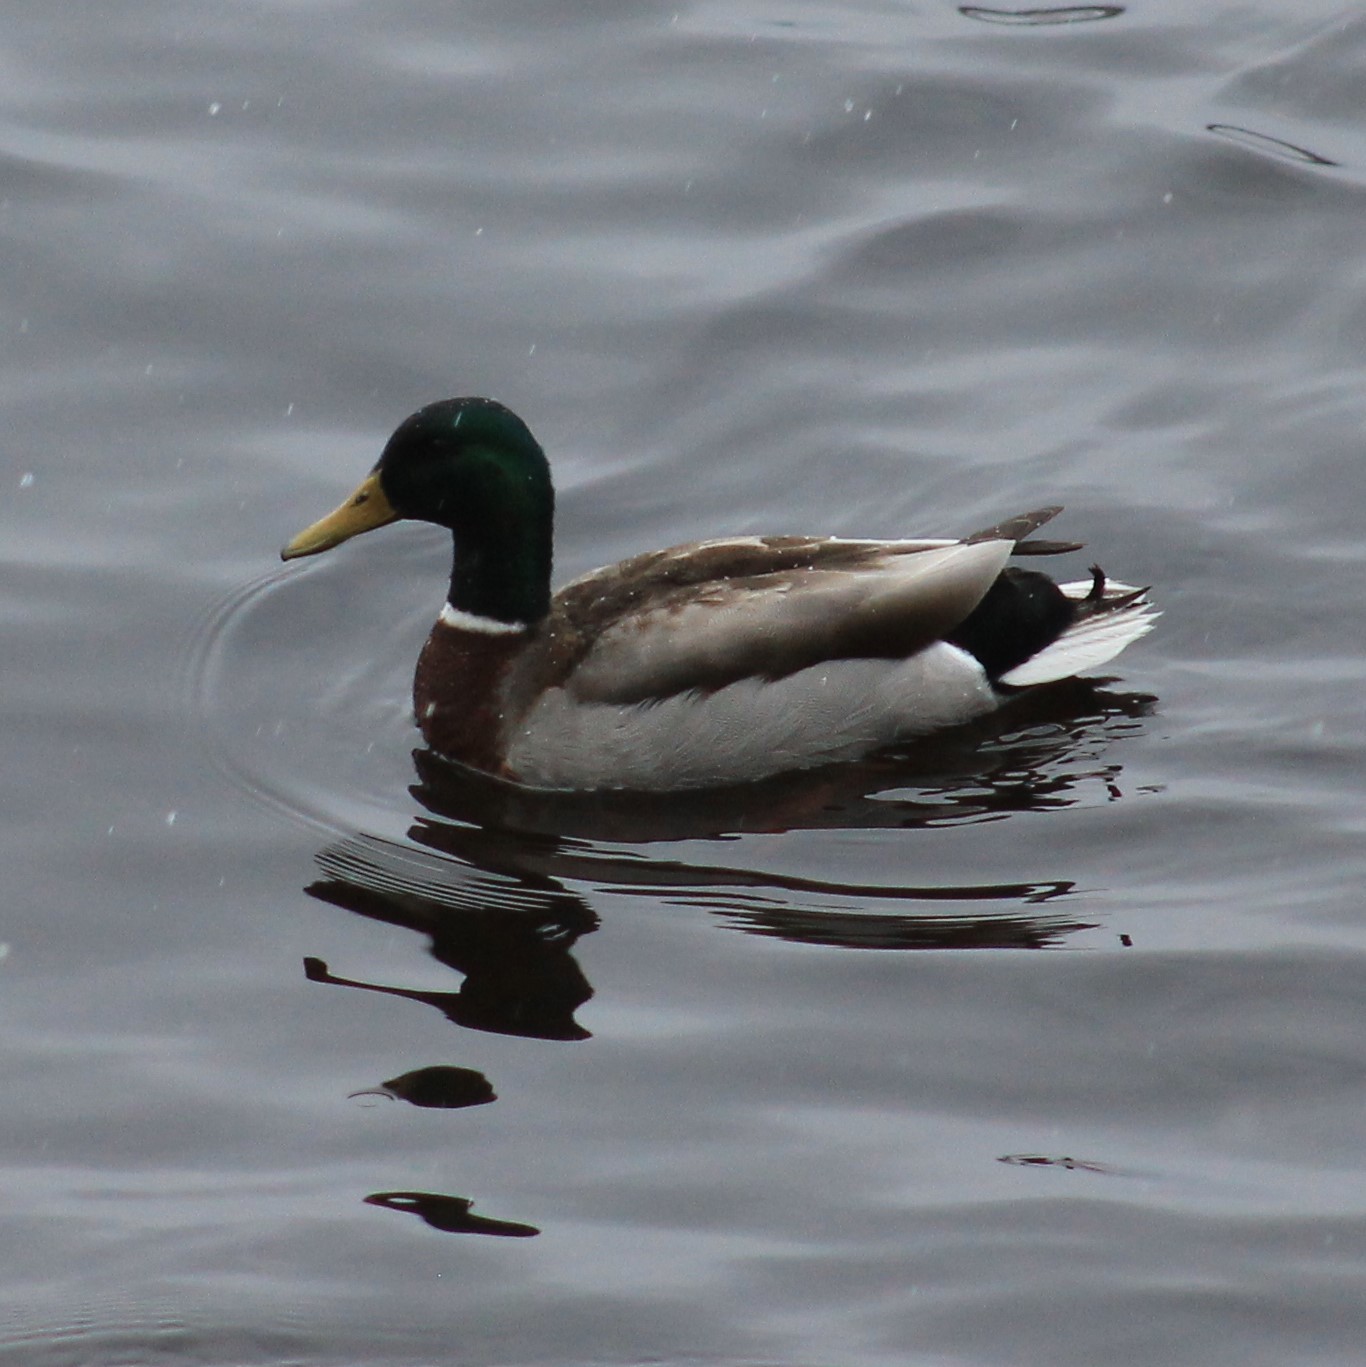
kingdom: Animalia
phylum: Chordata
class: Aves
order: Anseriformes
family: Anatidae
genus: Anas
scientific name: Anas platyrhynchos
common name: Mallard
